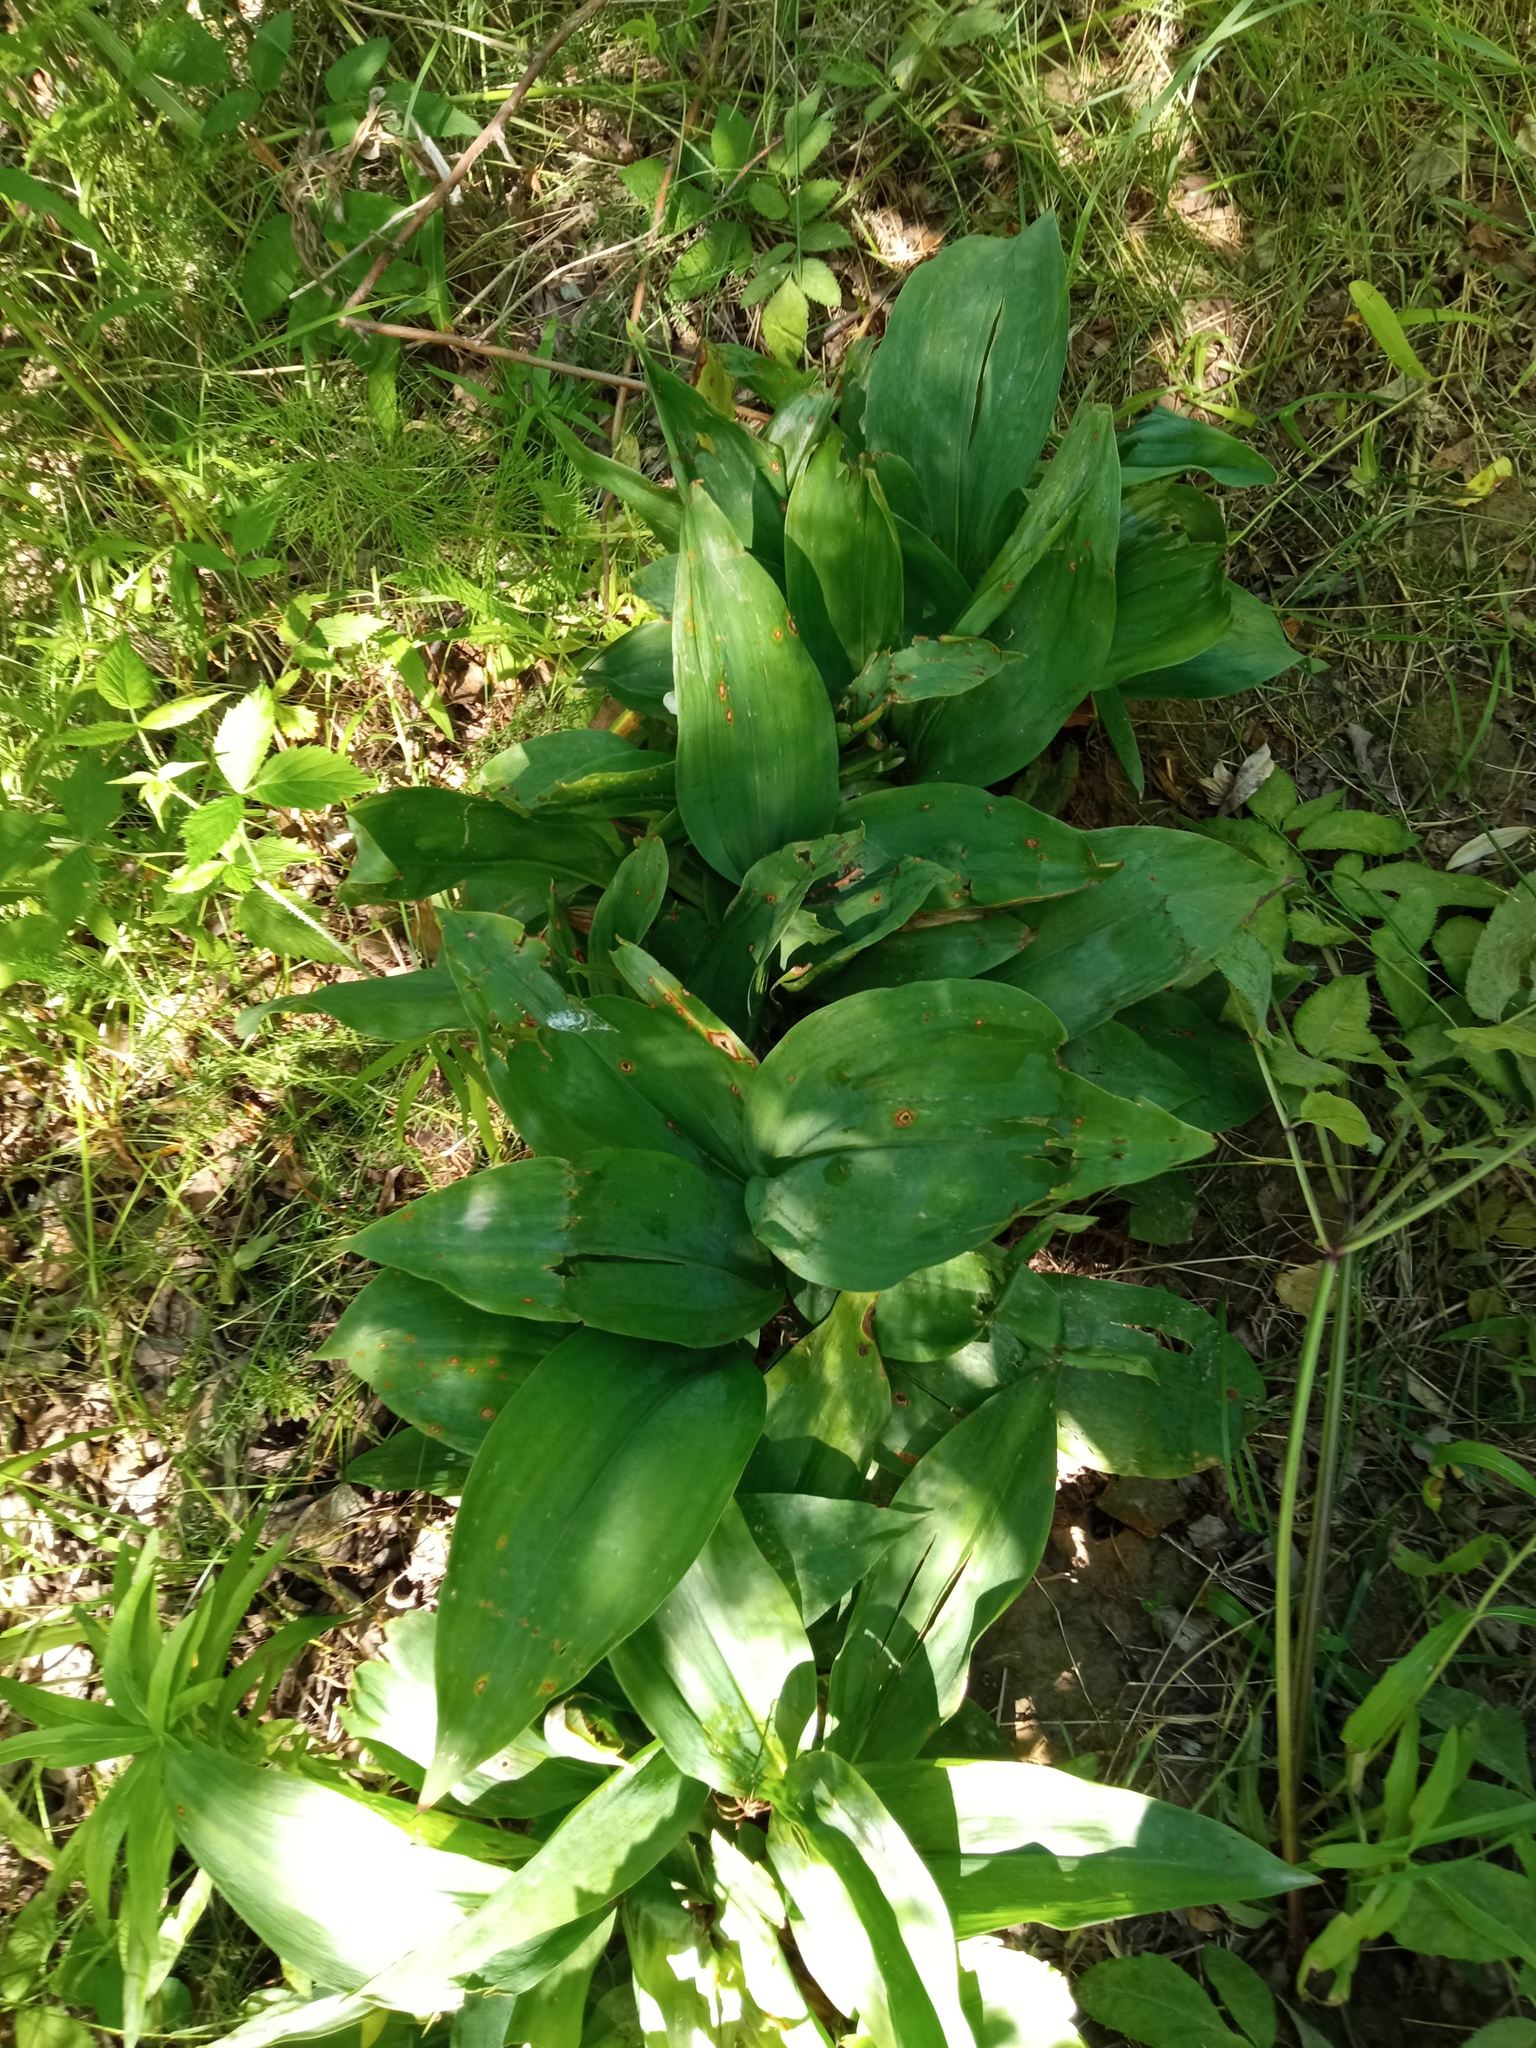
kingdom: Plantae
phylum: Tracheophyta
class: Liliopsida
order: Asparagales
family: Asparagaceae
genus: Convallaria
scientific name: Convallaria majalis
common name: Lily-of-the-valley
